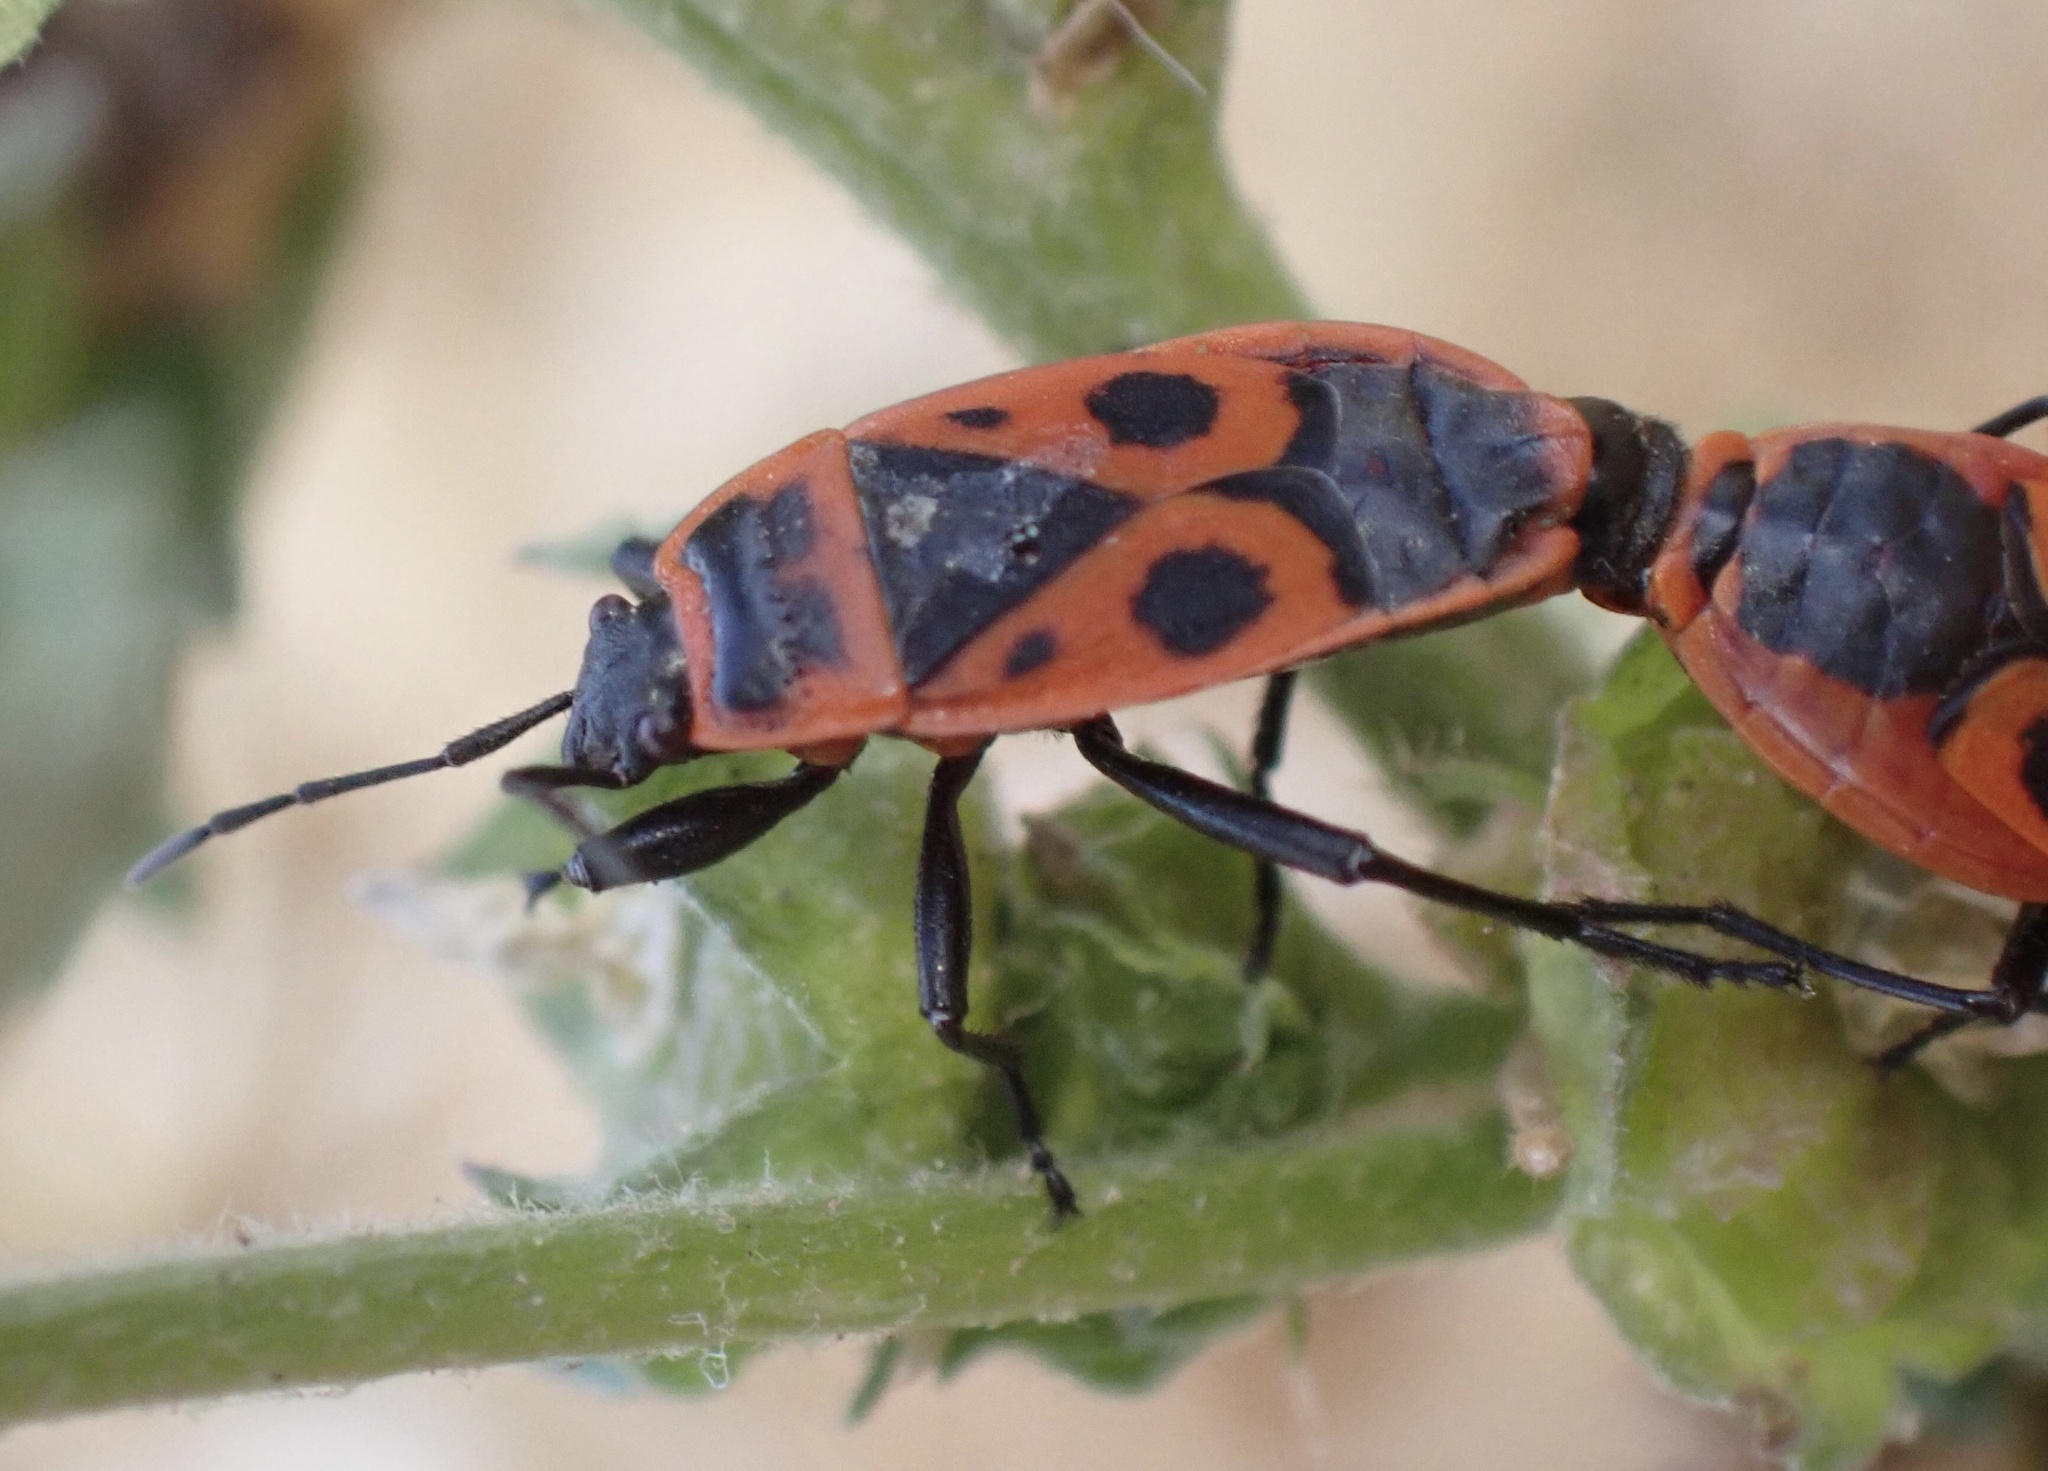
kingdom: Animalia
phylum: Arthropoda
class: Insecta
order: Hemiptera
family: Pyrrhocoridae
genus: Pyrrhocoris
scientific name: Pyrrhocoris apterus
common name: Firebug
